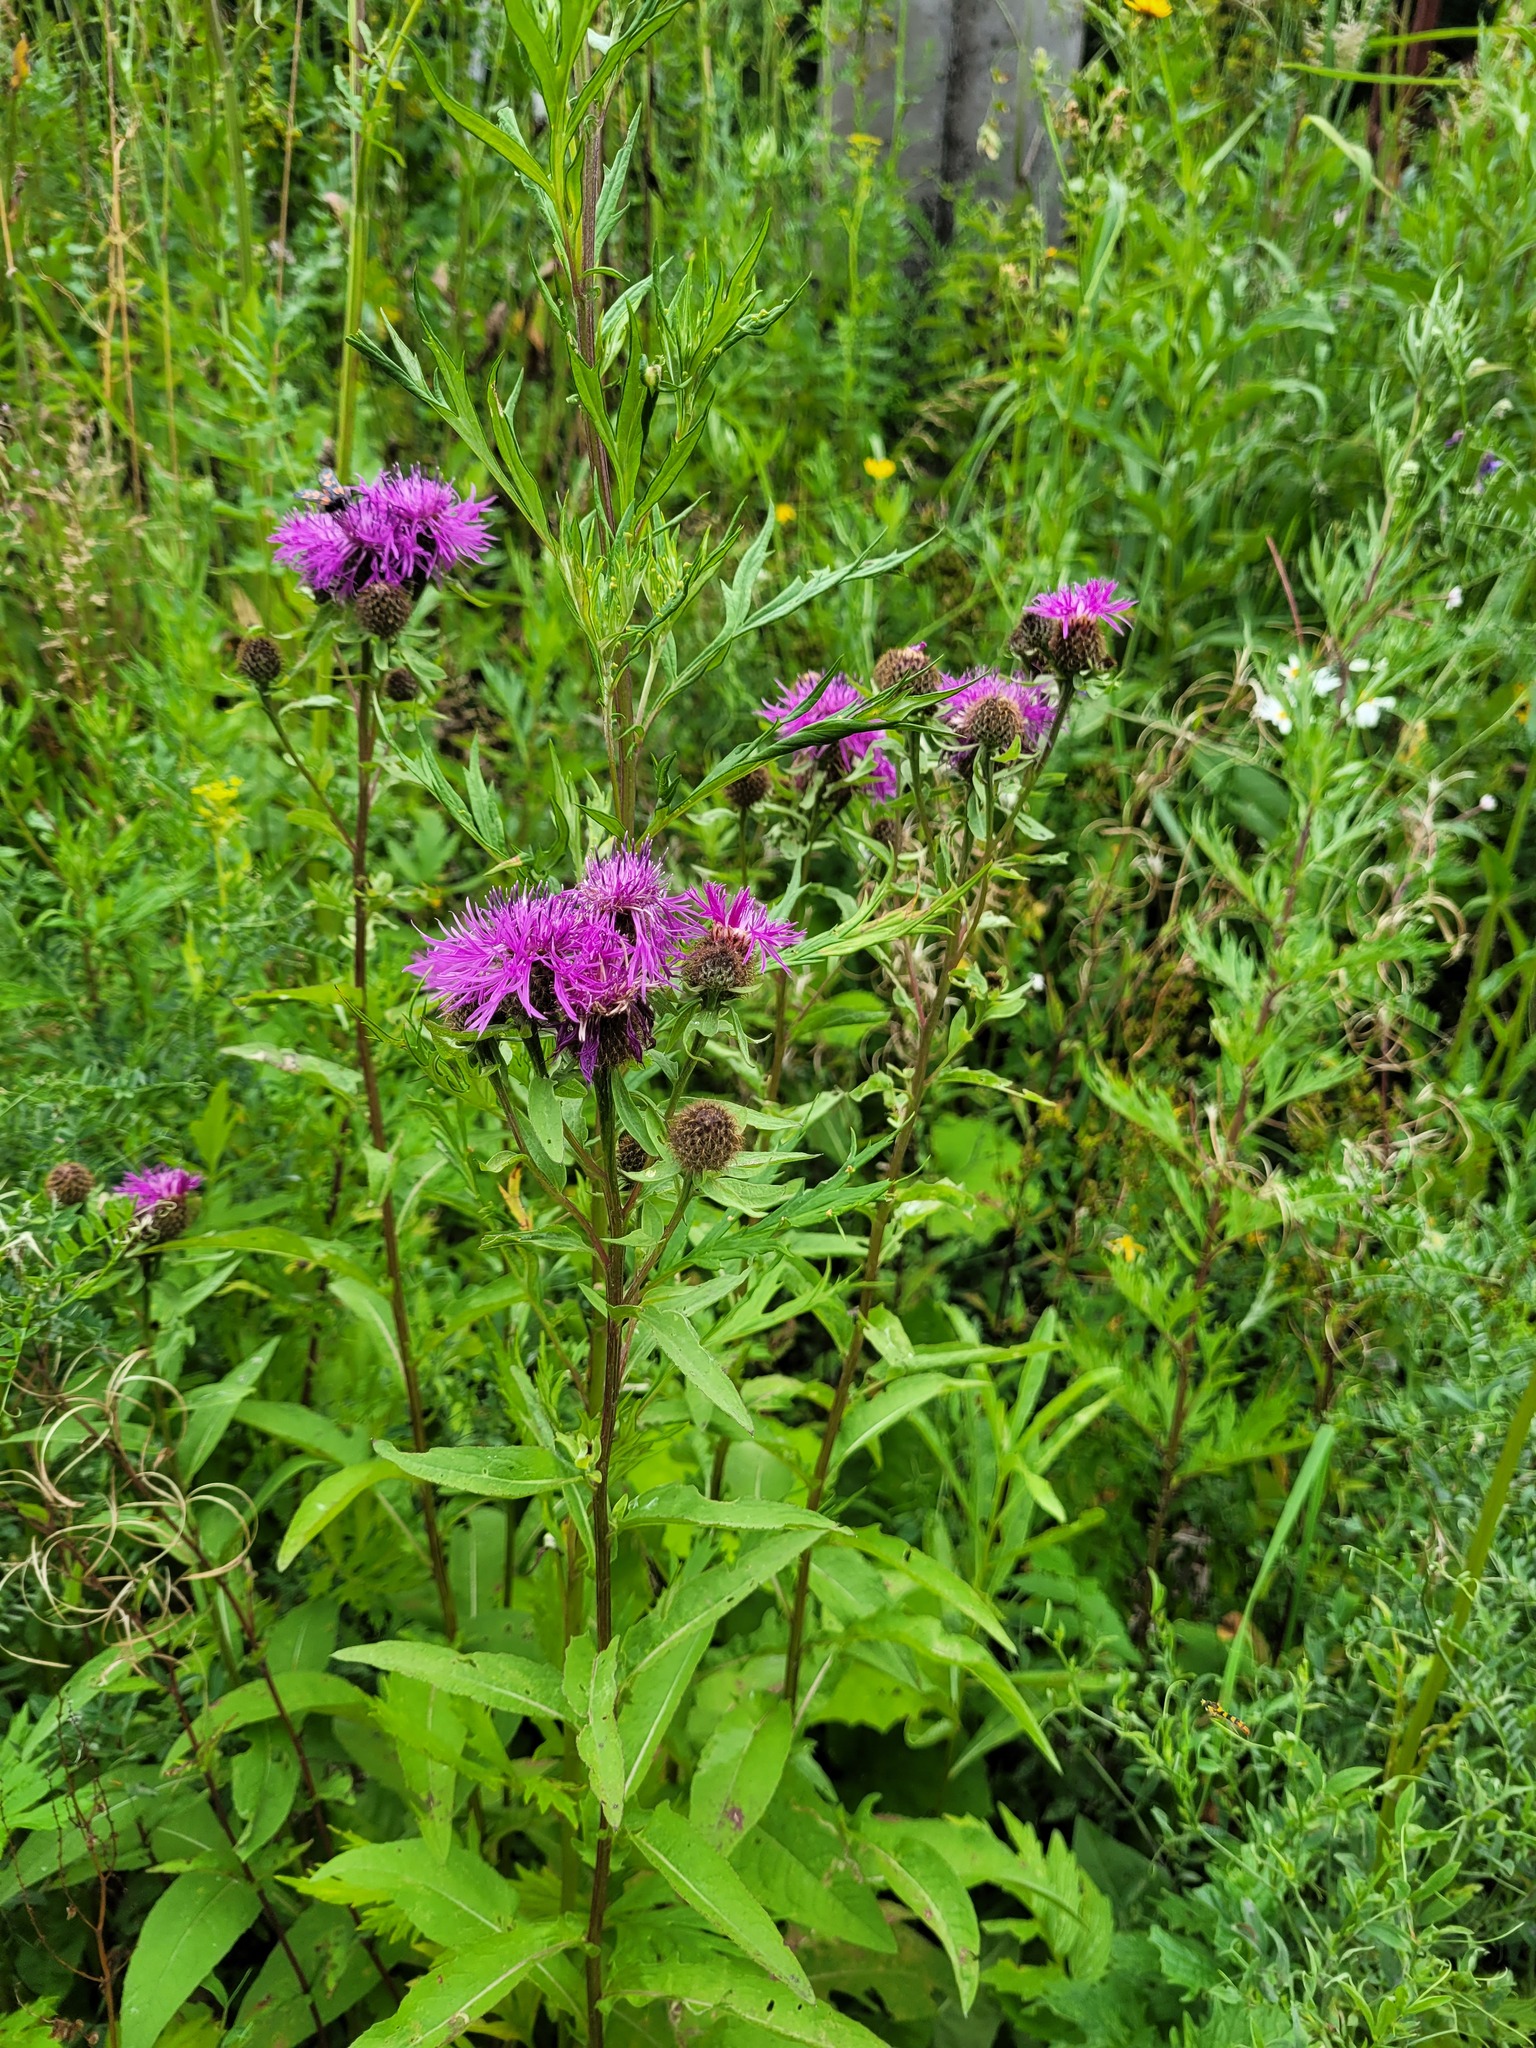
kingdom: Plantae
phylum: Tracheophyta
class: Magnoliopsida
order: Asterales
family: Asteraceae
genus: Centaurea
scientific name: Centaurea pseudophrygia
